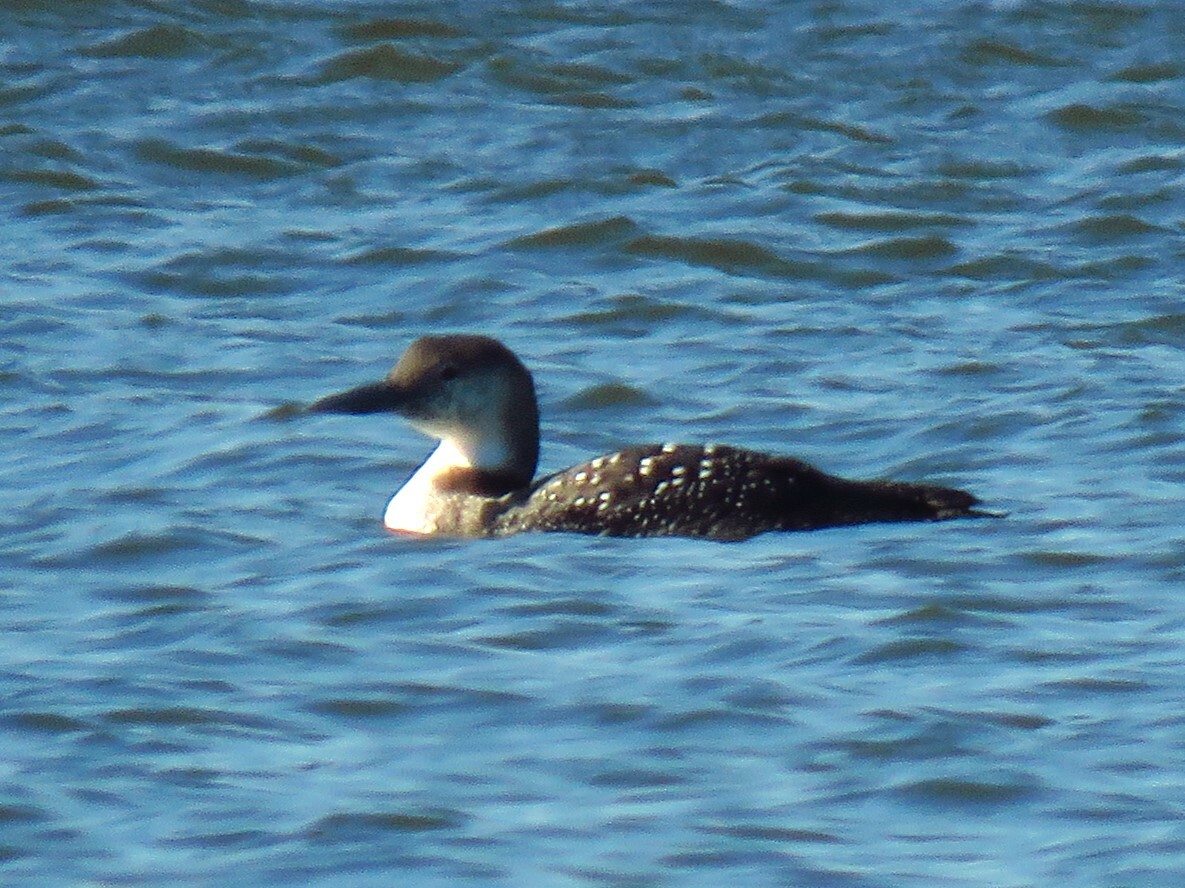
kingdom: Animalia
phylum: Chordata
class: Aves
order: Gaviiformes
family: Gaviidae
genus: Gavia
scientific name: Gavia immer
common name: Common loon
